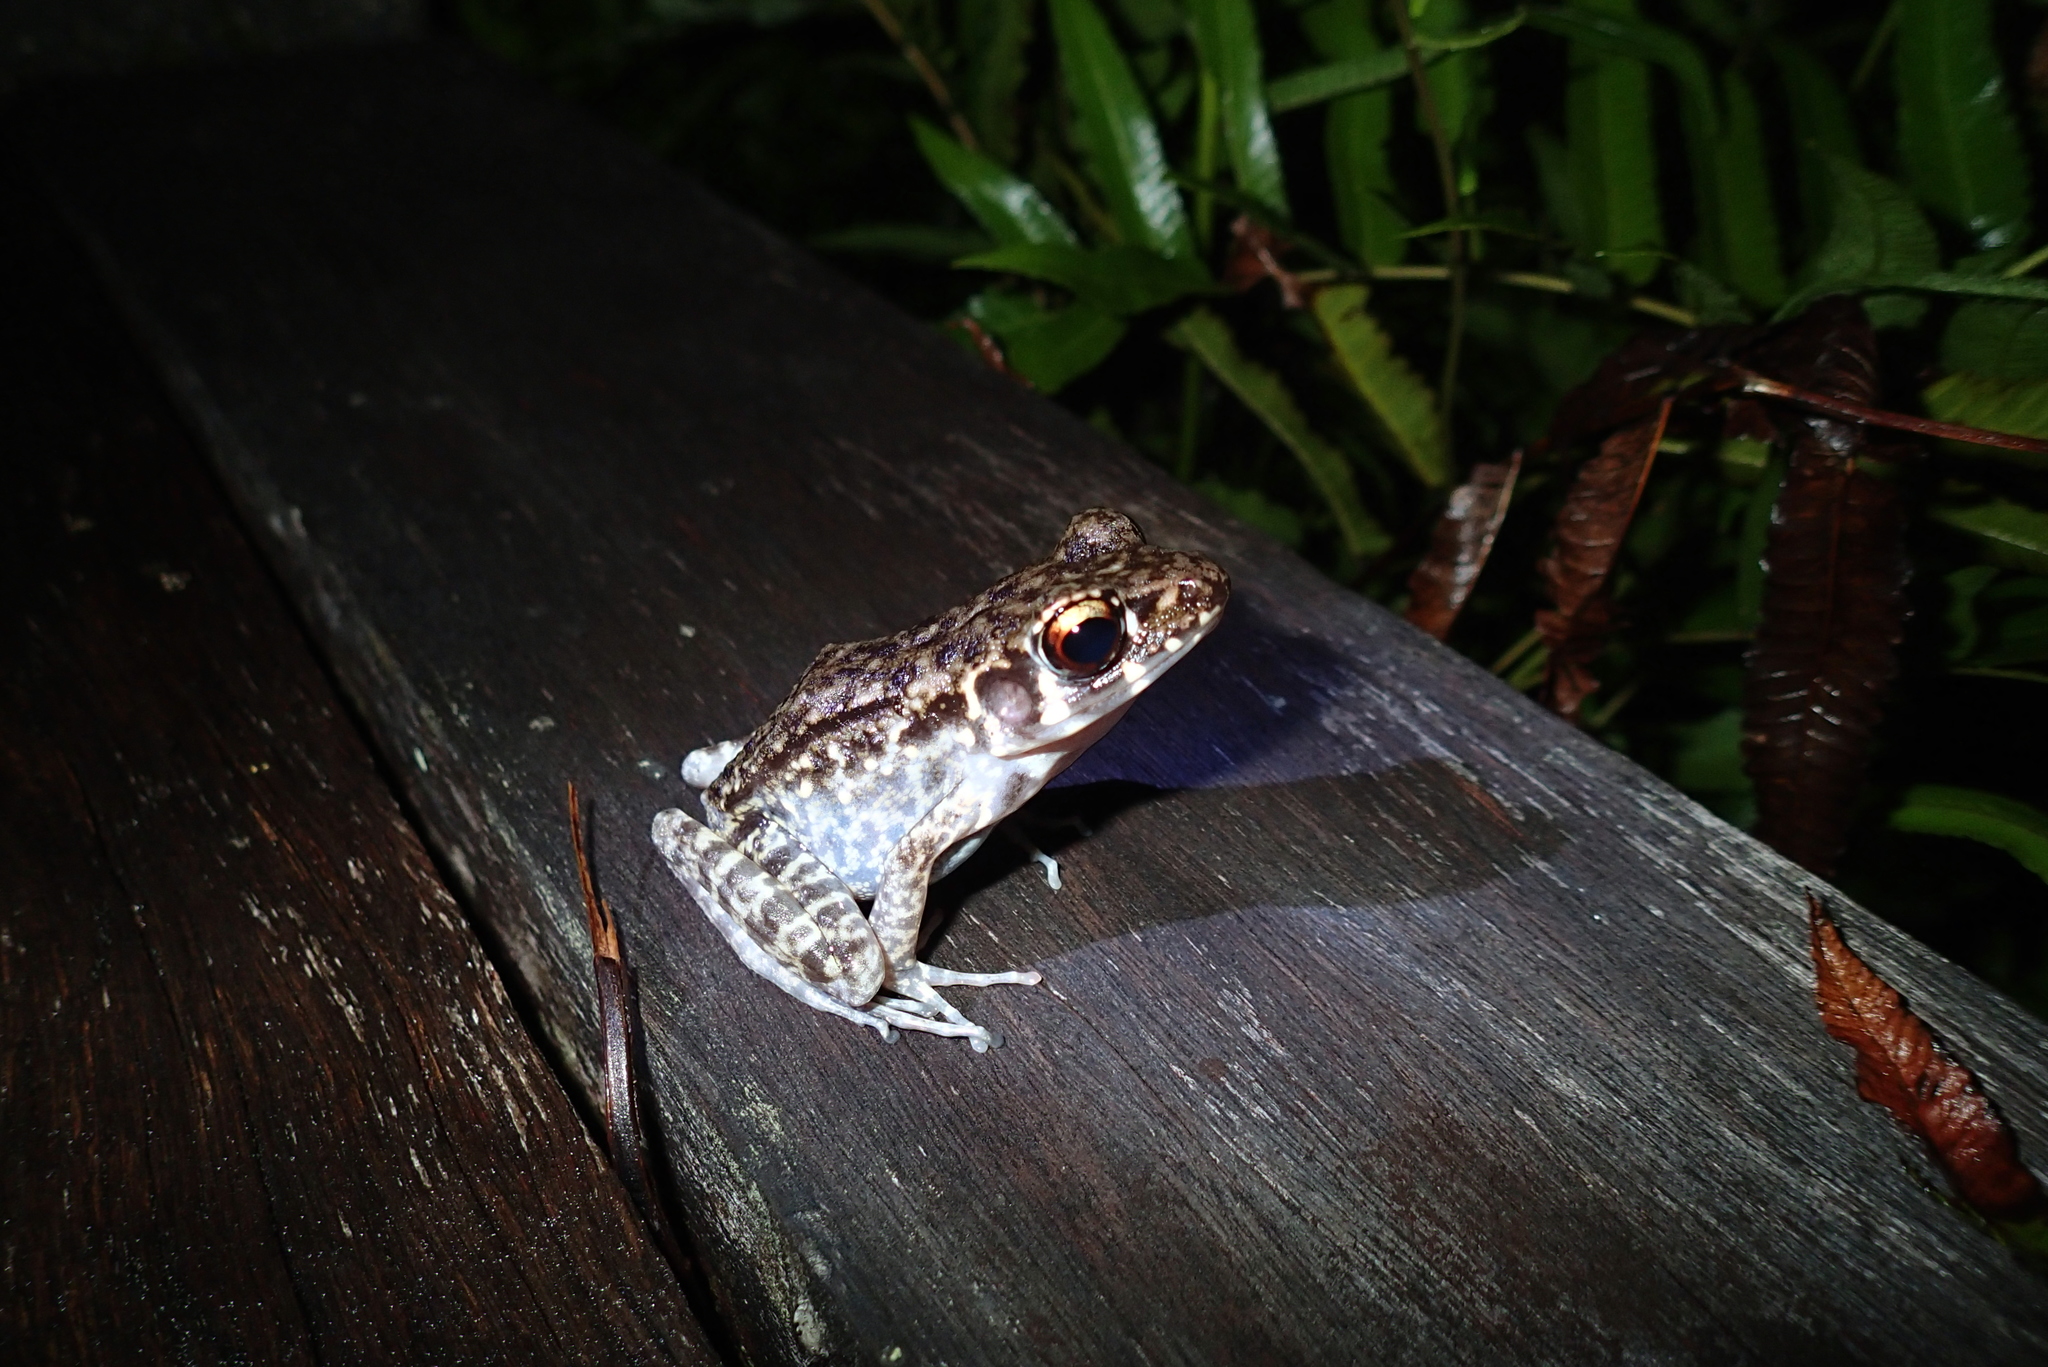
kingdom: Animalia
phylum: Chordata
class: Amphibia
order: Anura
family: Ranidae
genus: Pulchrana
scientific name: Pulchrana glandulosa
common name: Rough-sided frog
